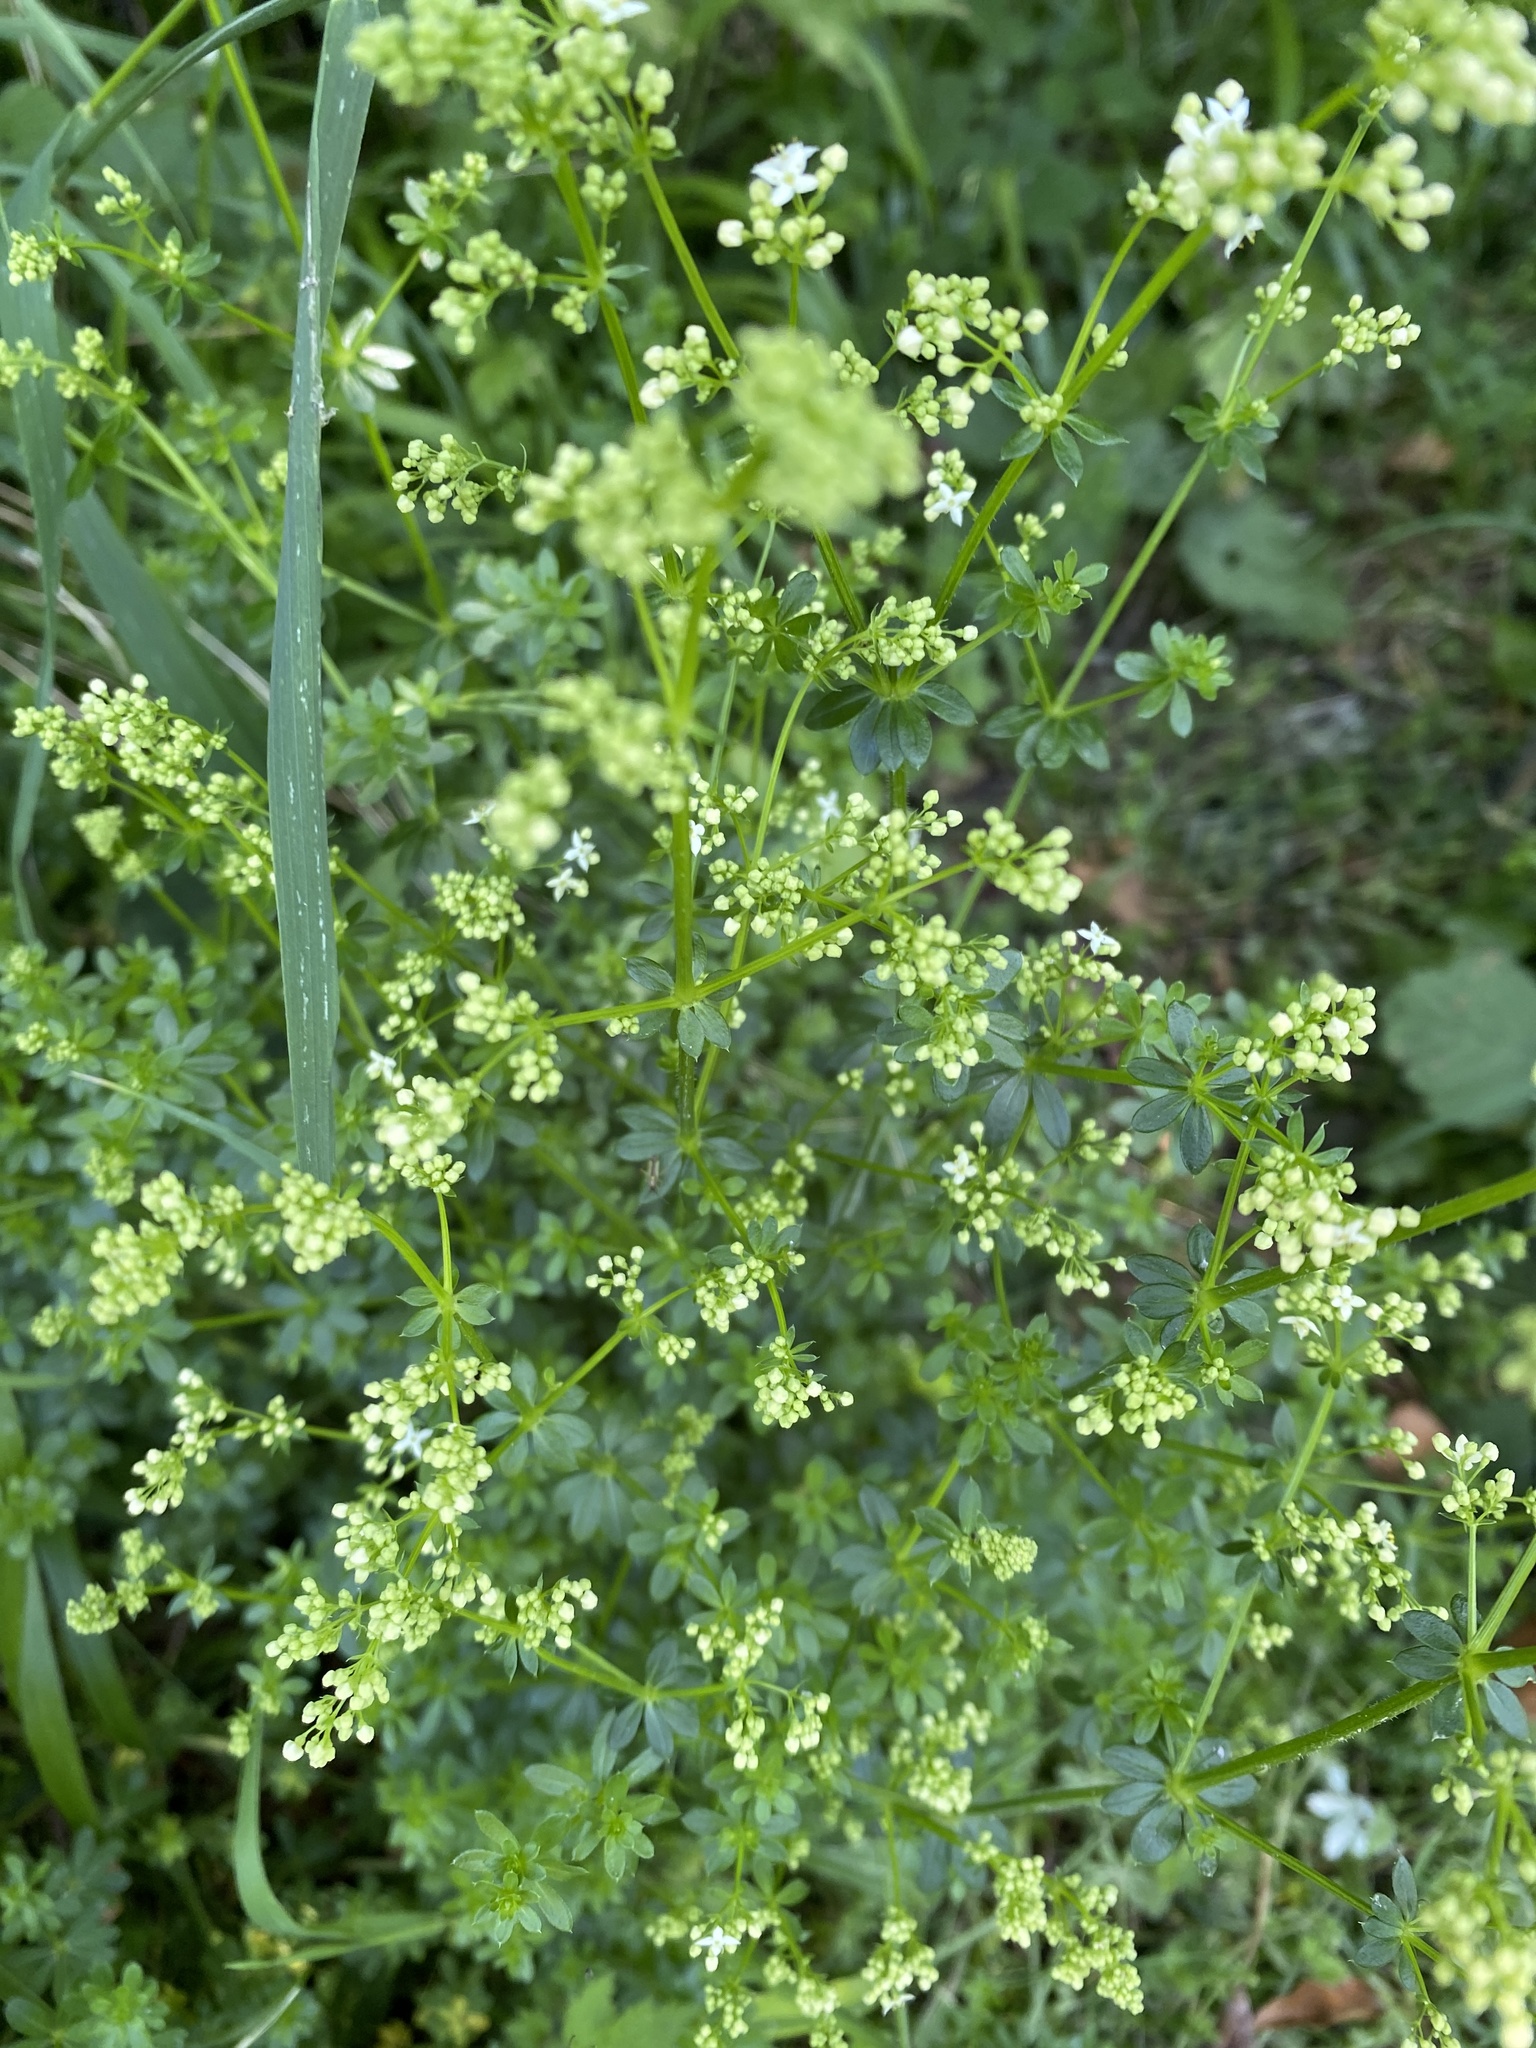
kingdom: Plantae
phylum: Tracheophyta
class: Magnoliopsida
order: Gentianales
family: Rubiaceae
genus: Galium
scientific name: Galium album
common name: White bedstraw
